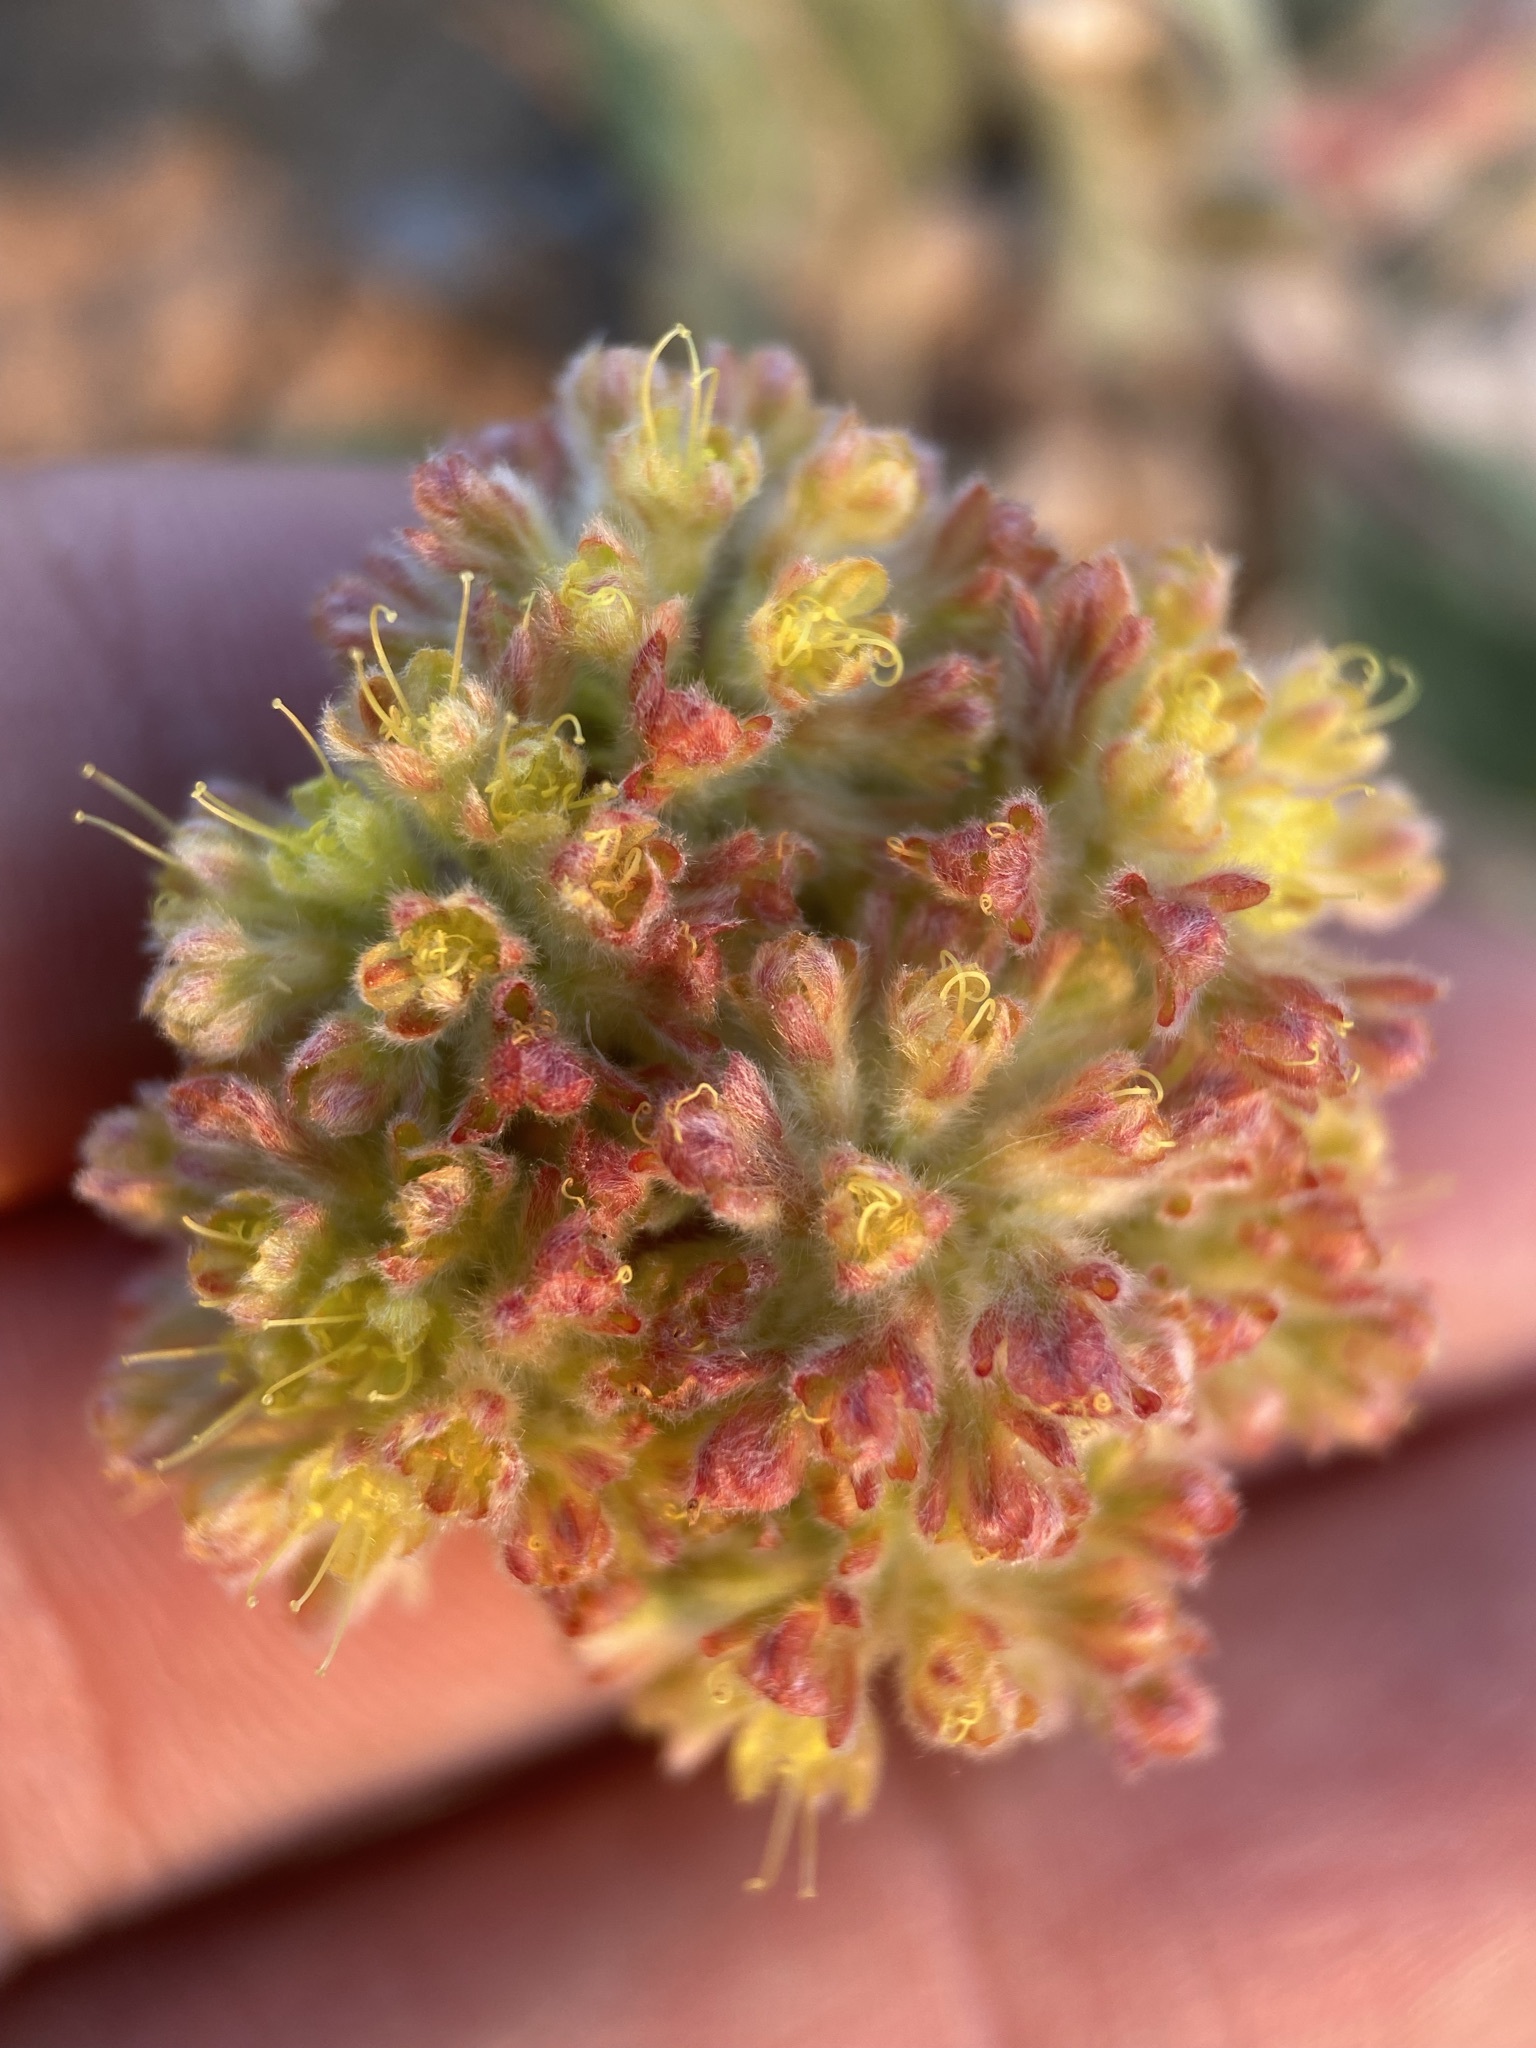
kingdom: Plantae
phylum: Tracheophyta
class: Magnoliopsida
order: Caryophyllales
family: Polygonaceae
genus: Eriogonum
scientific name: Eriogonum flavum
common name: Alpine golden wild buckwheat
